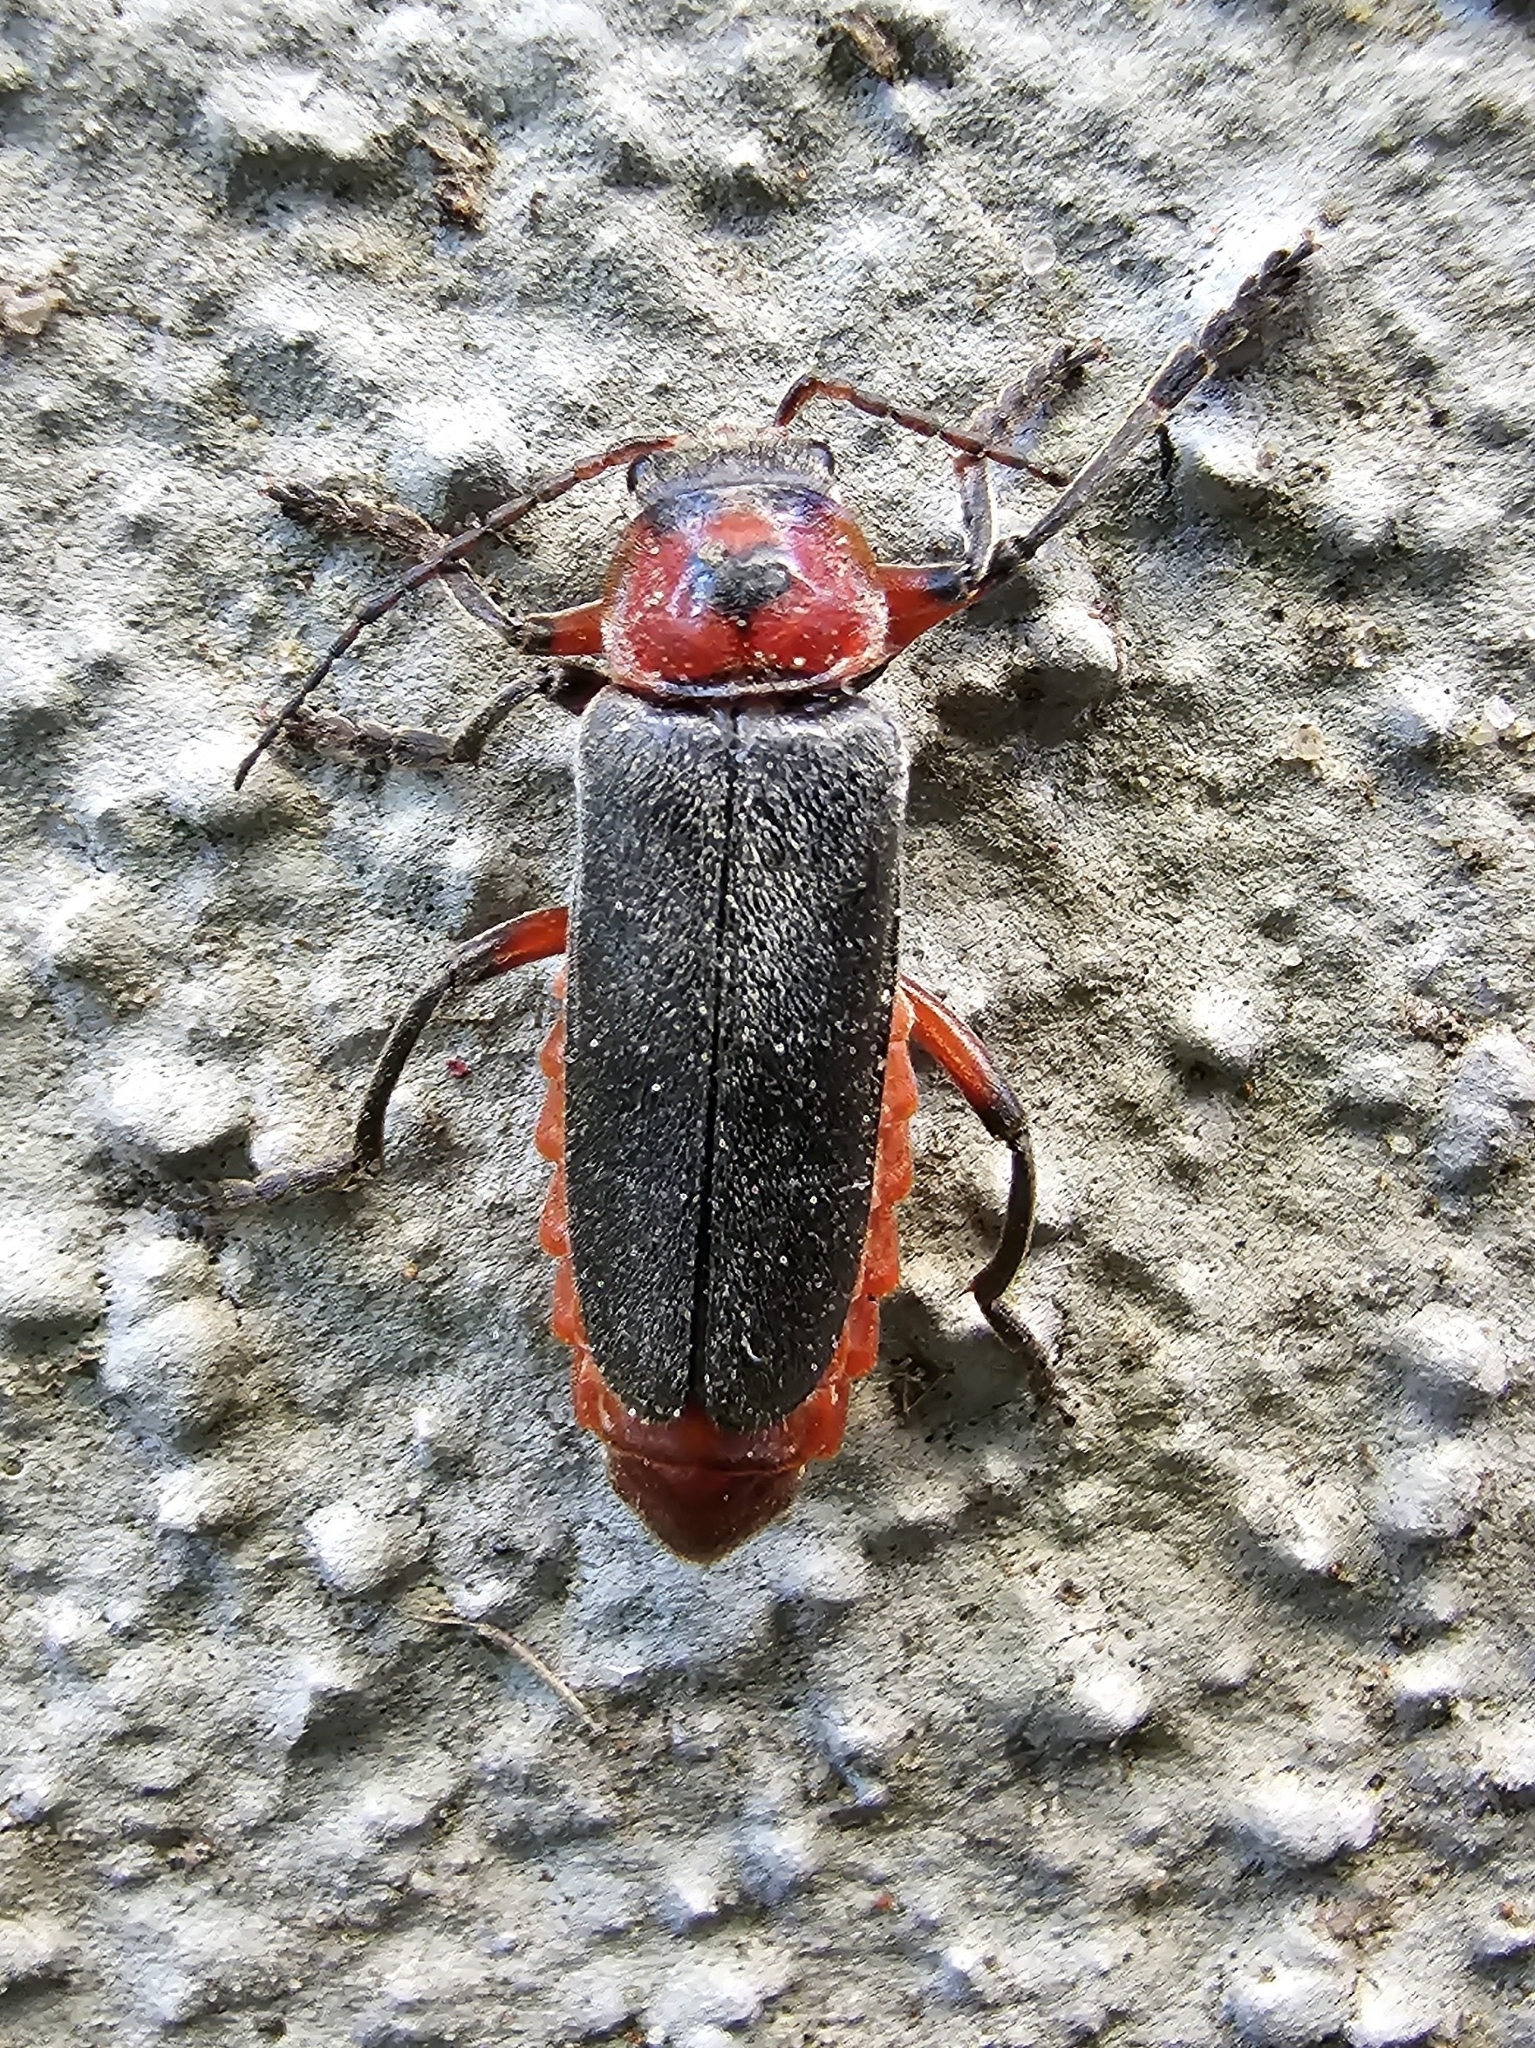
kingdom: Animalia
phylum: Arthropoda
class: Insecta
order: Coleoptera
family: Cantharidae
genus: Cantharis
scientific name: Cantharis rustica
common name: Soldier beetle
